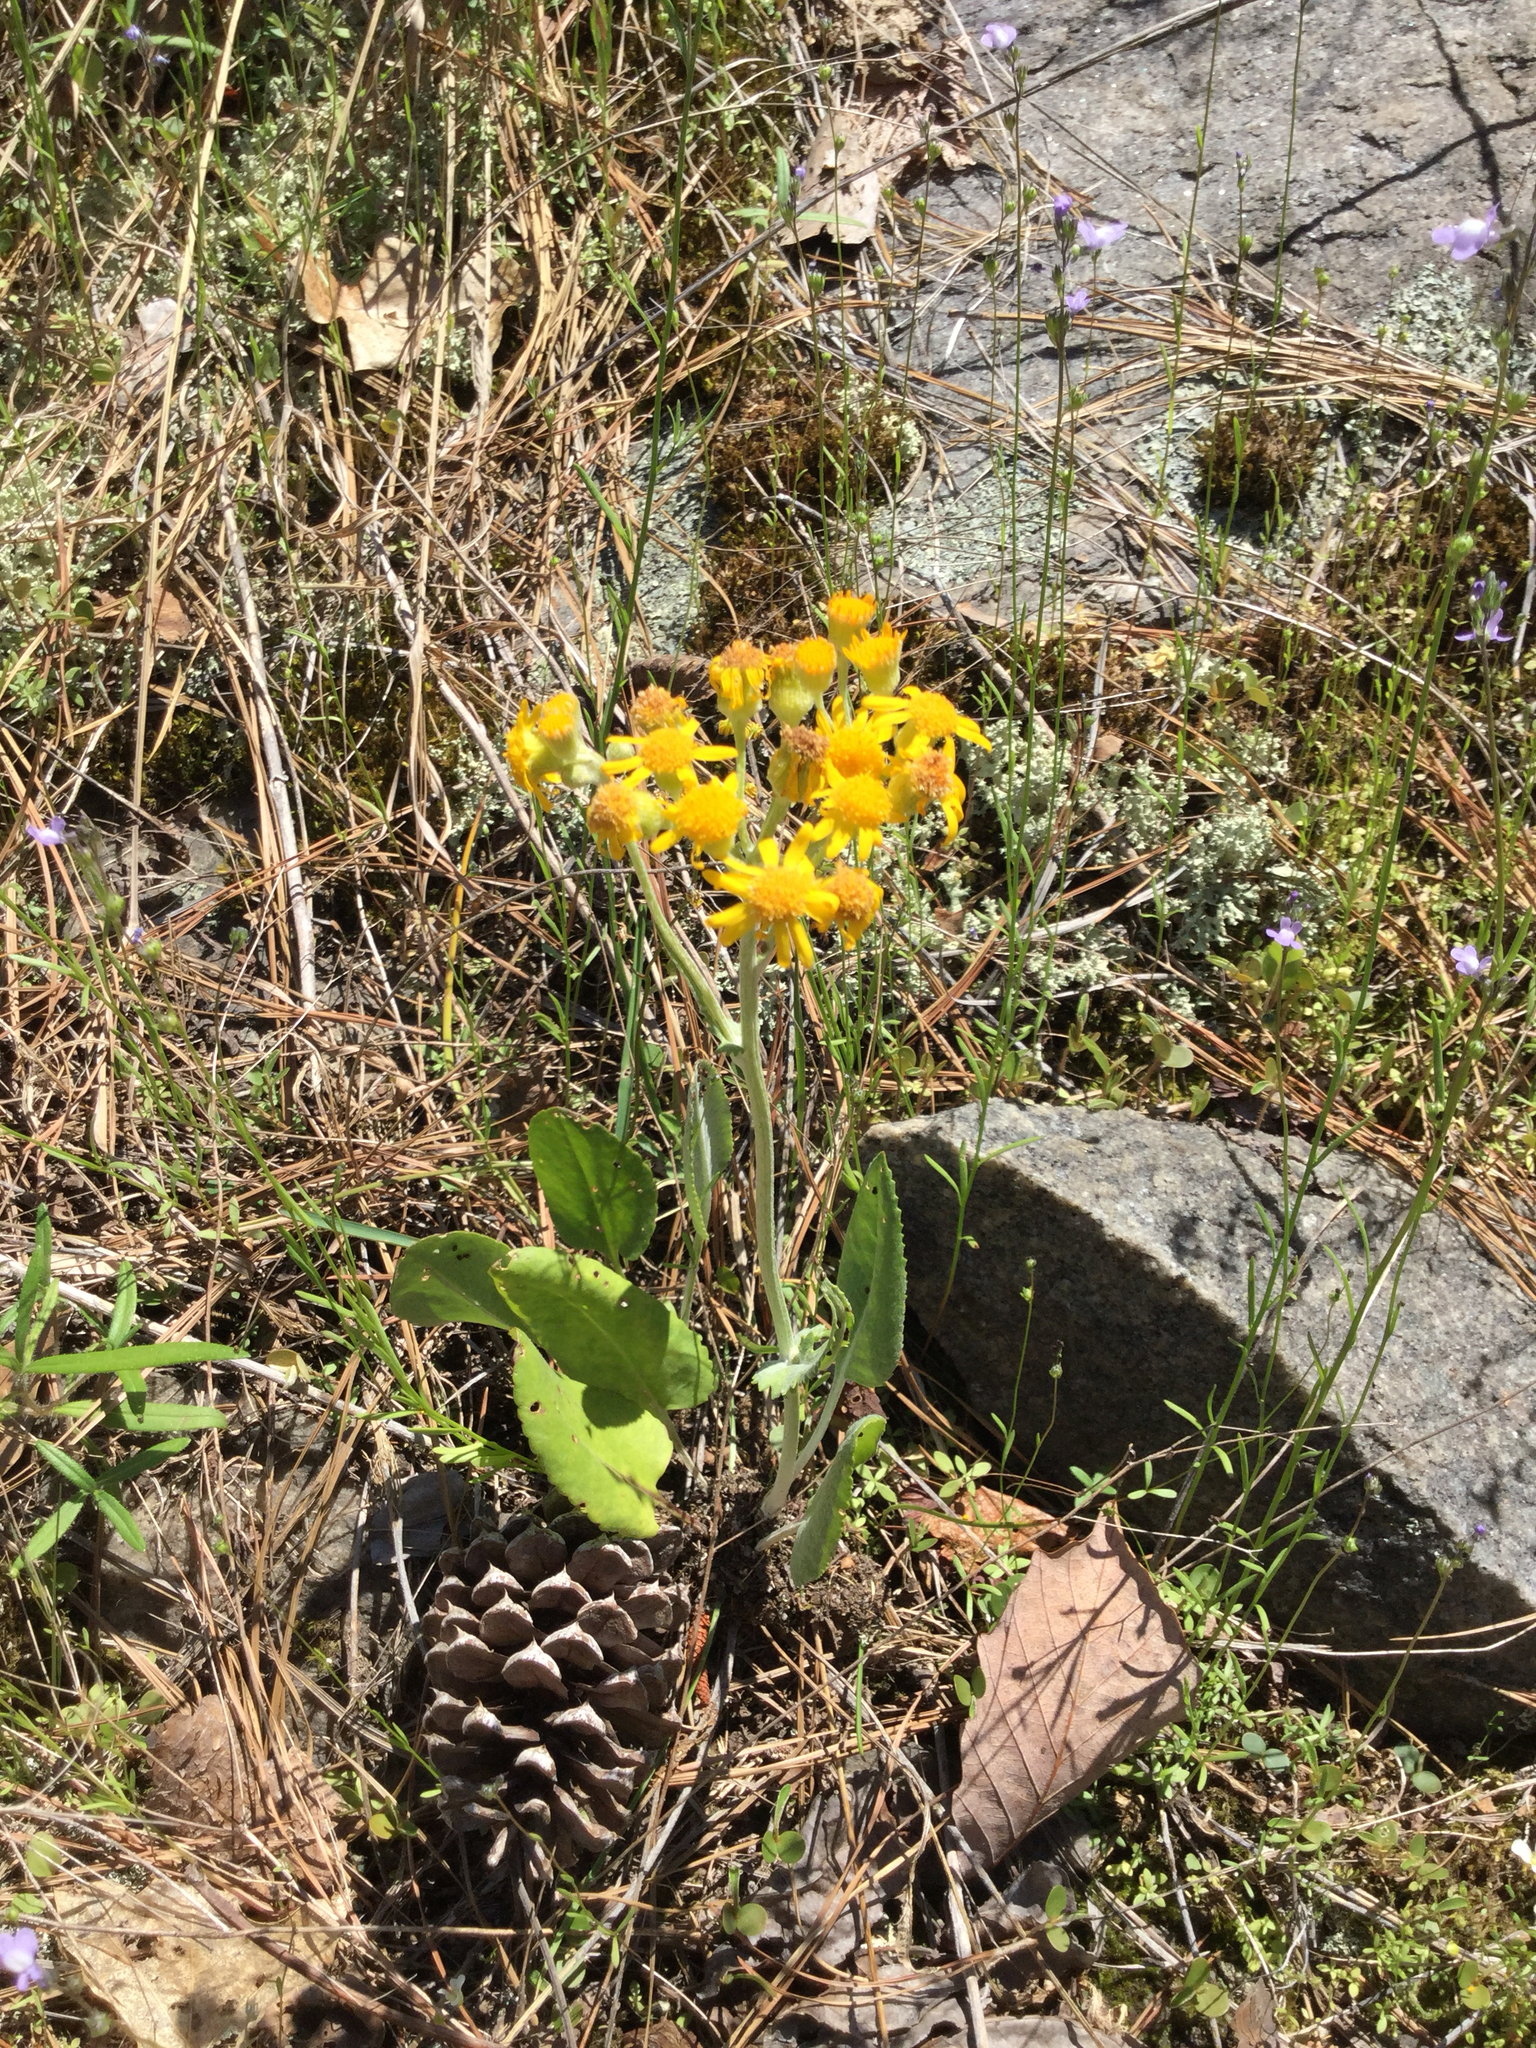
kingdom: Plantae
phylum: Tracheophyta
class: Magnoliopsida
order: Asterales
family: Asteraceae
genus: Packera
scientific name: Packera dubia
